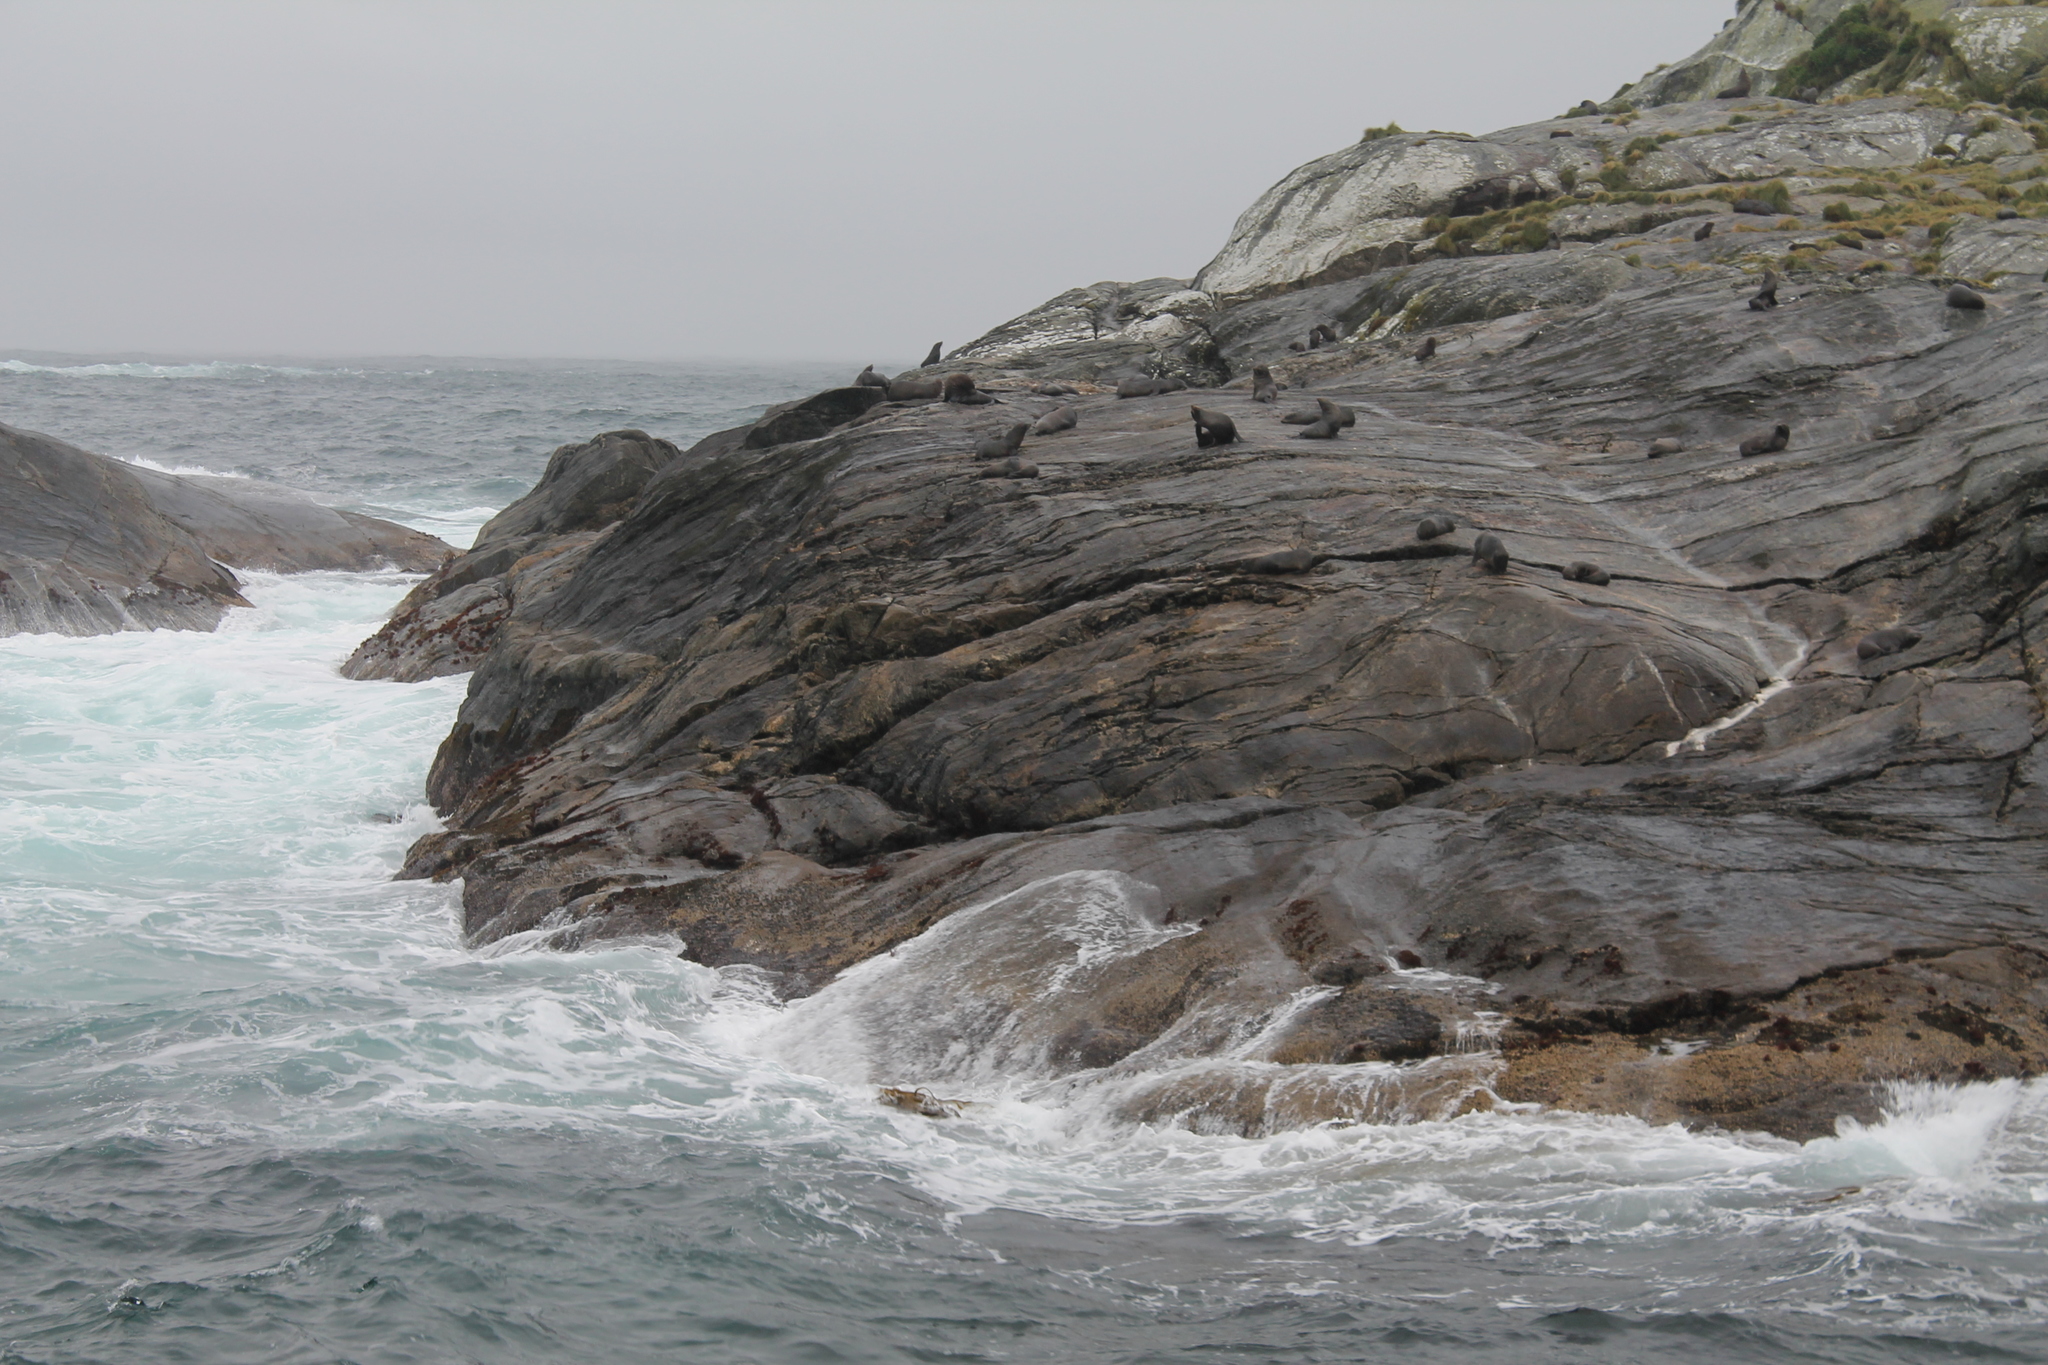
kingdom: Animalia
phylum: Chordata
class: Mammalia
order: Carnivora
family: Otariidae
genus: Arctocephalus
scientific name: Arctocephalus forsteri
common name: New zealand fur seal
